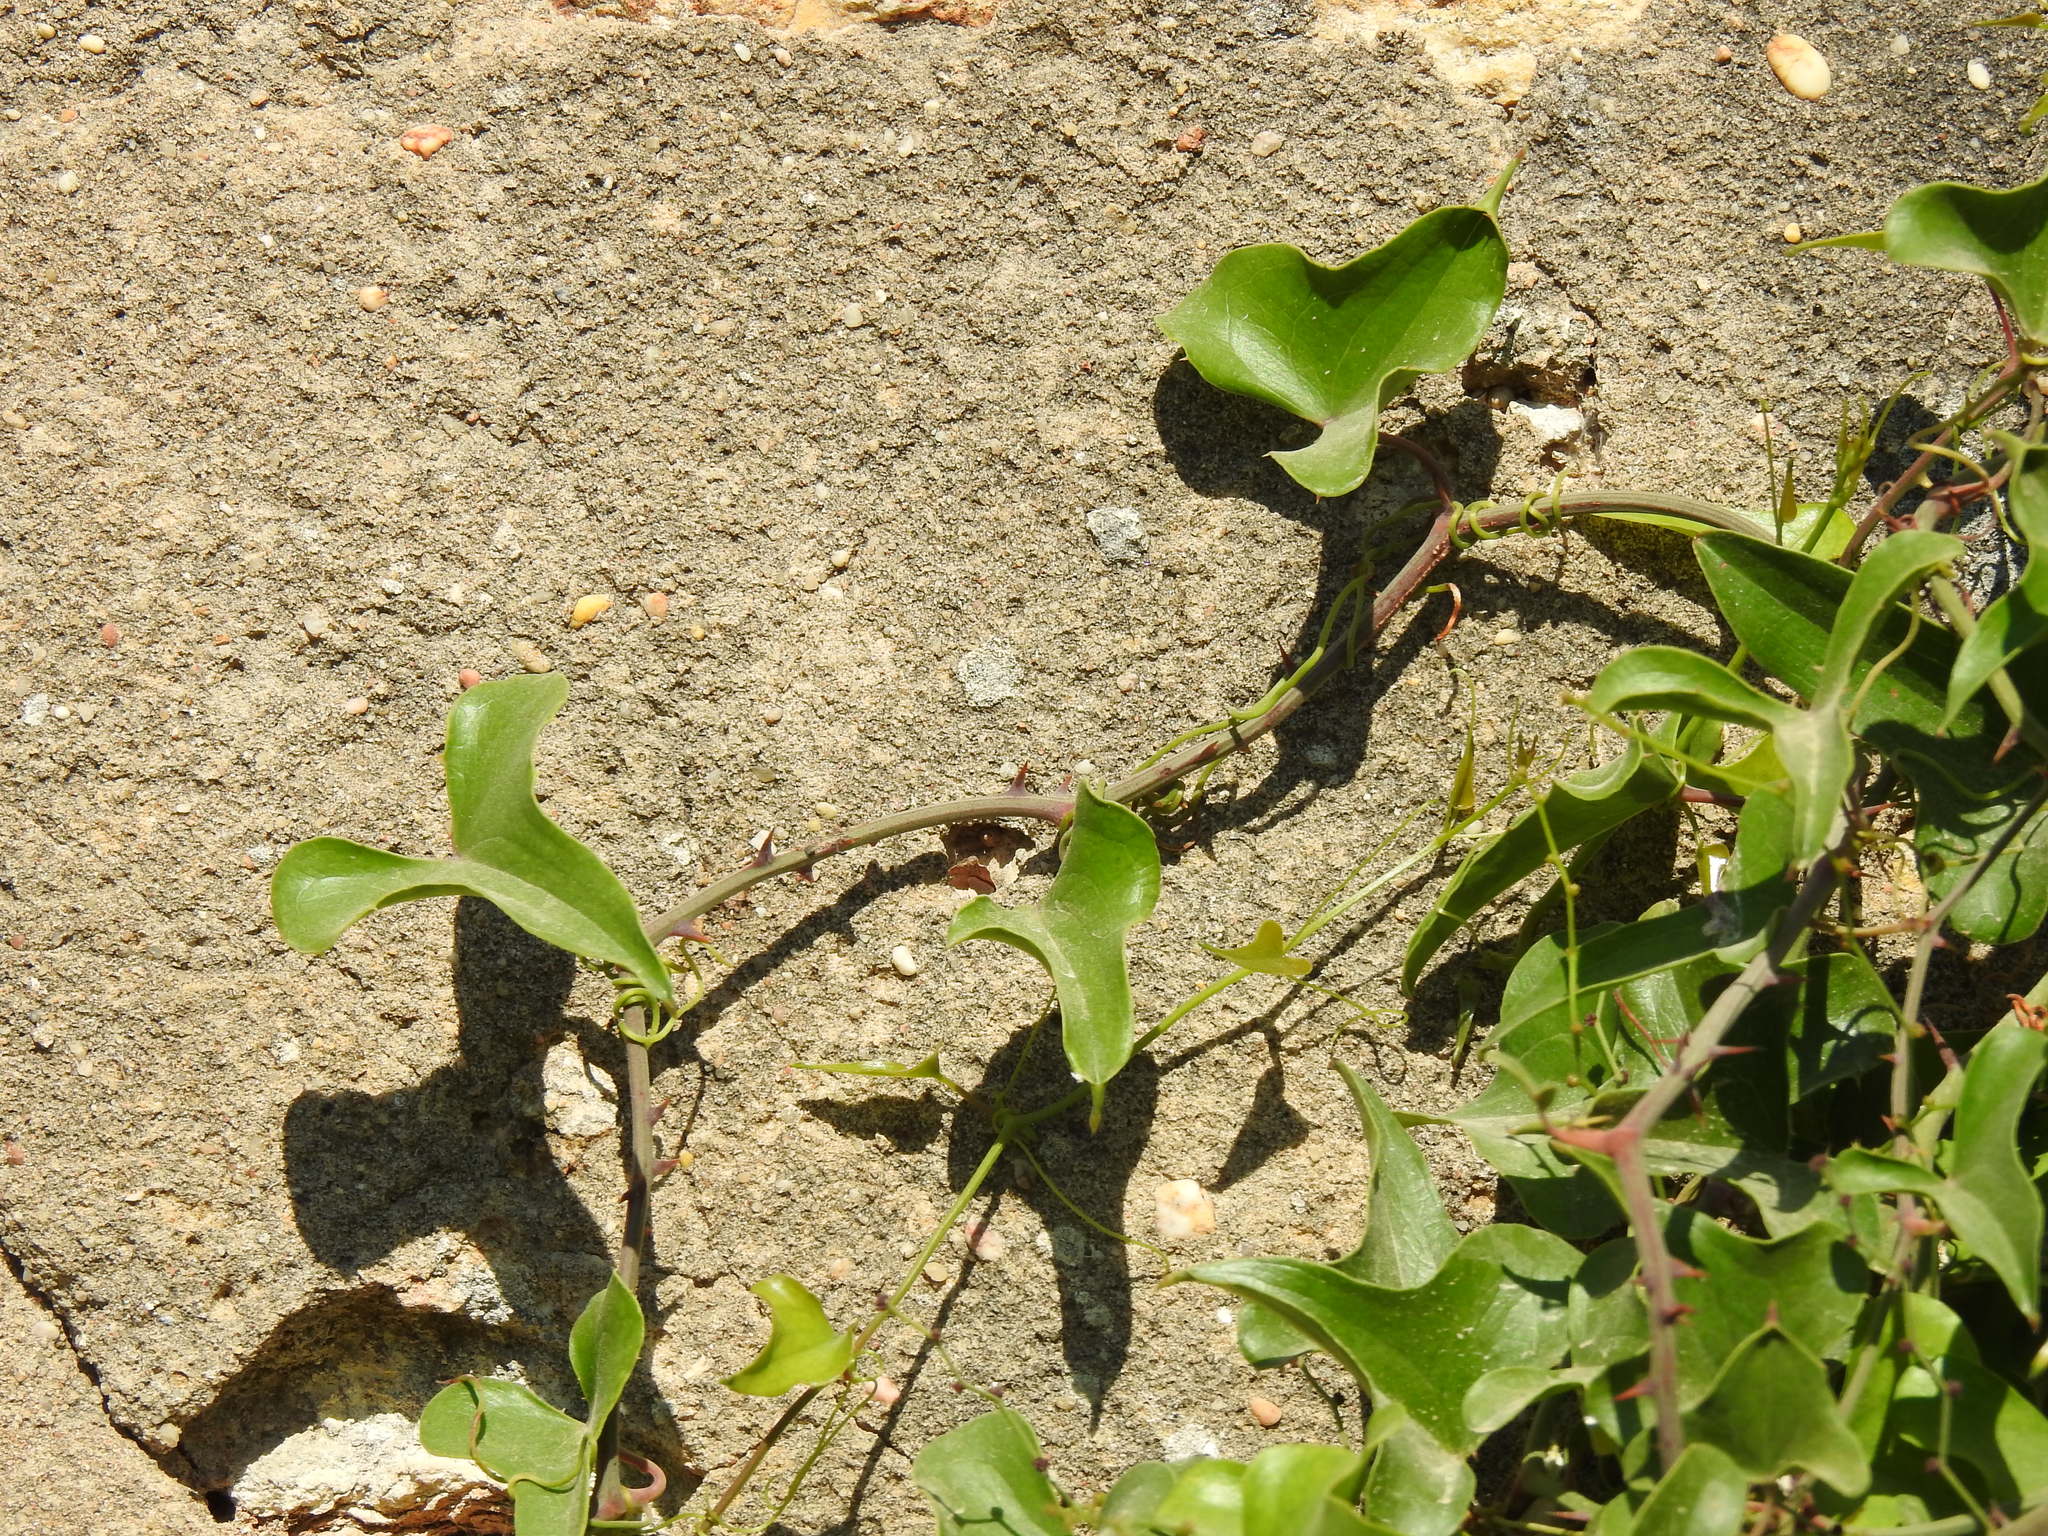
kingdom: Plantae
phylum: Tracheophyta
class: Liliopsida
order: Liliales
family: Smilacaceae
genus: Smilax
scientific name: Smilax aspera
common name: Common smilax
